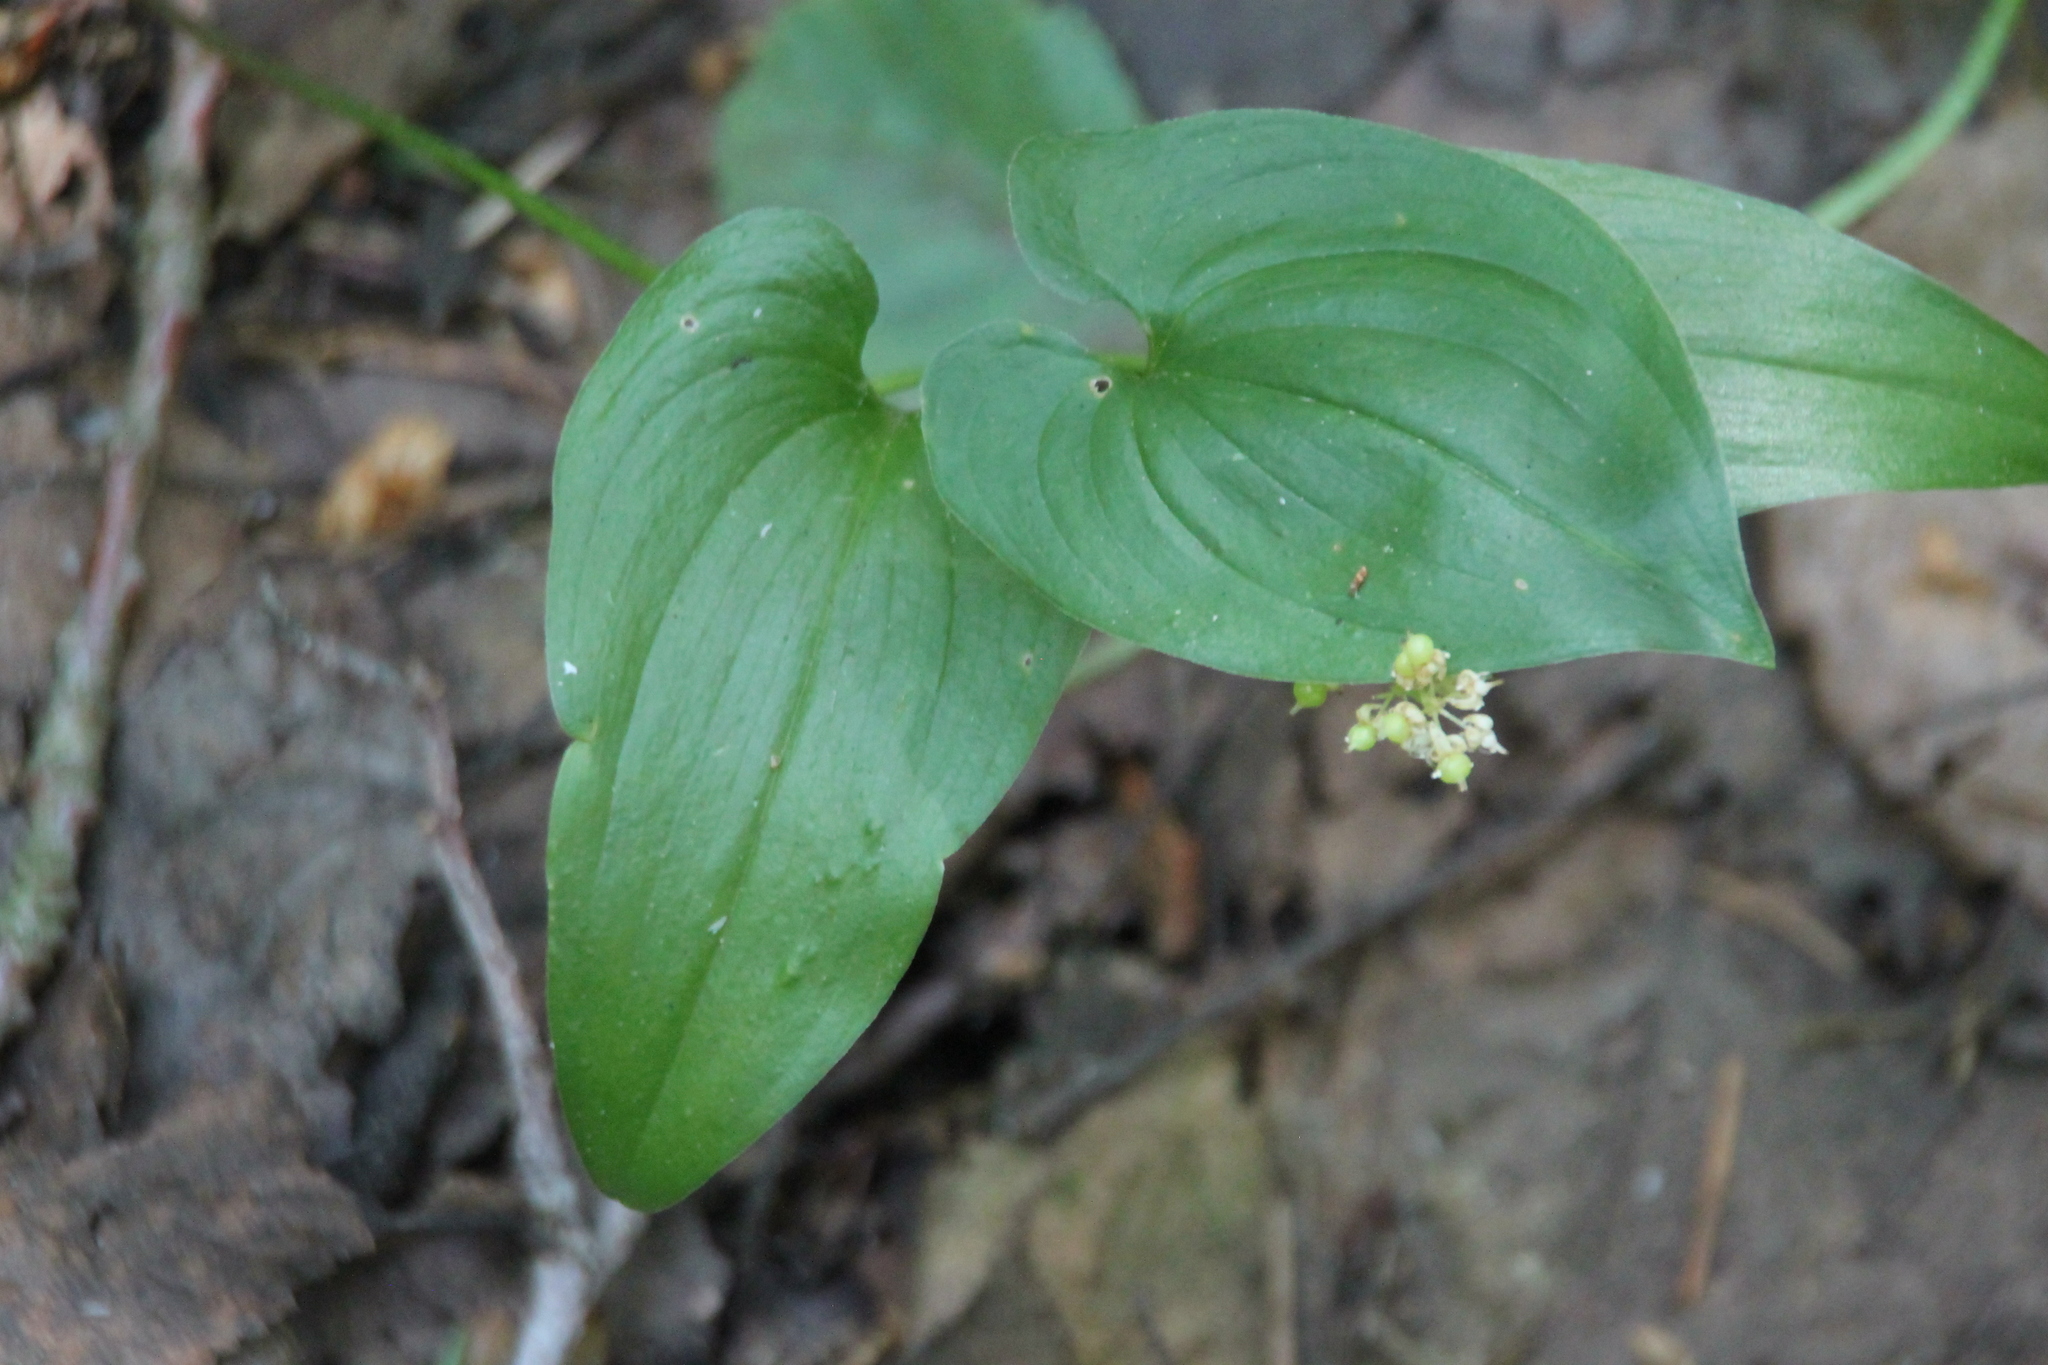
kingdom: Plantae
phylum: Tracheophyta
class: Liliopsida
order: Asparagales
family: Asparagaceae
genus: Maianthemum
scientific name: Maianthemum bifolium
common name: May lily
